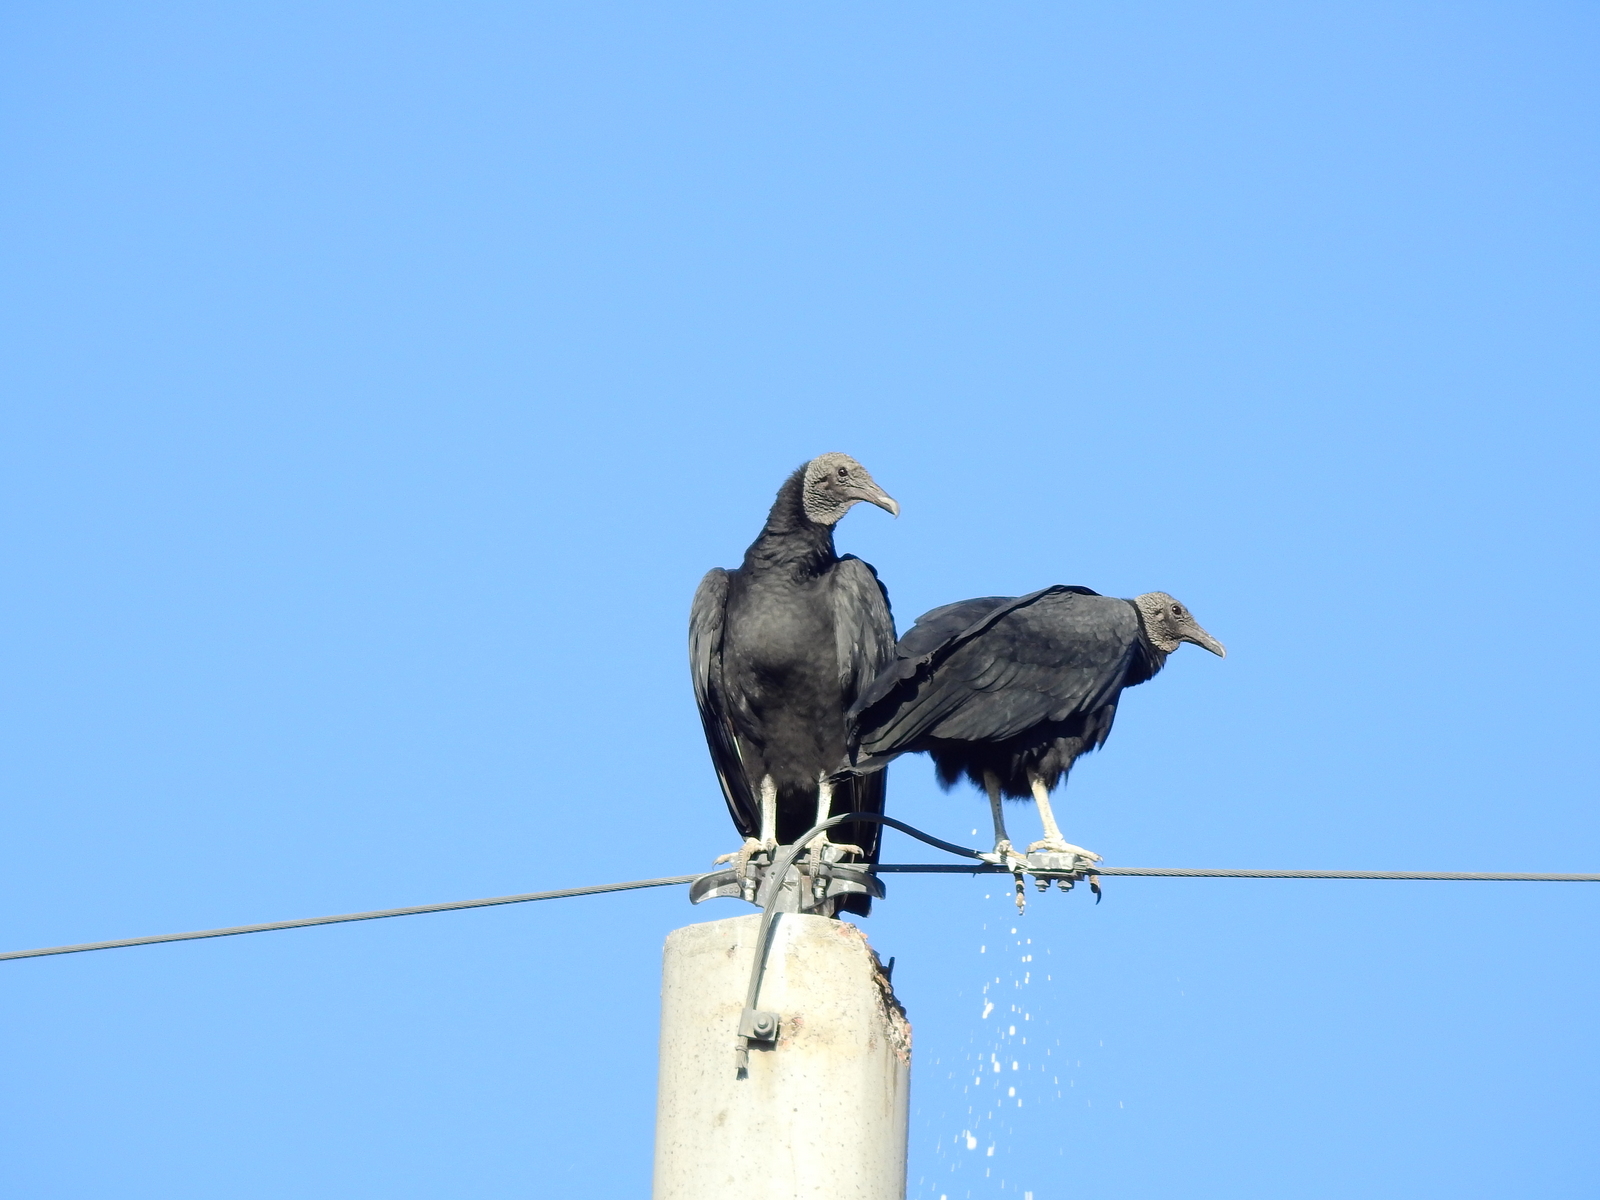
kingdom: Animalia
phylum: Chordata
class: Aves
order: Accipitriformes
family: Cathartidae
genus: Coragyps
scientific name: Coragyps atratus
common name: Black vulture
